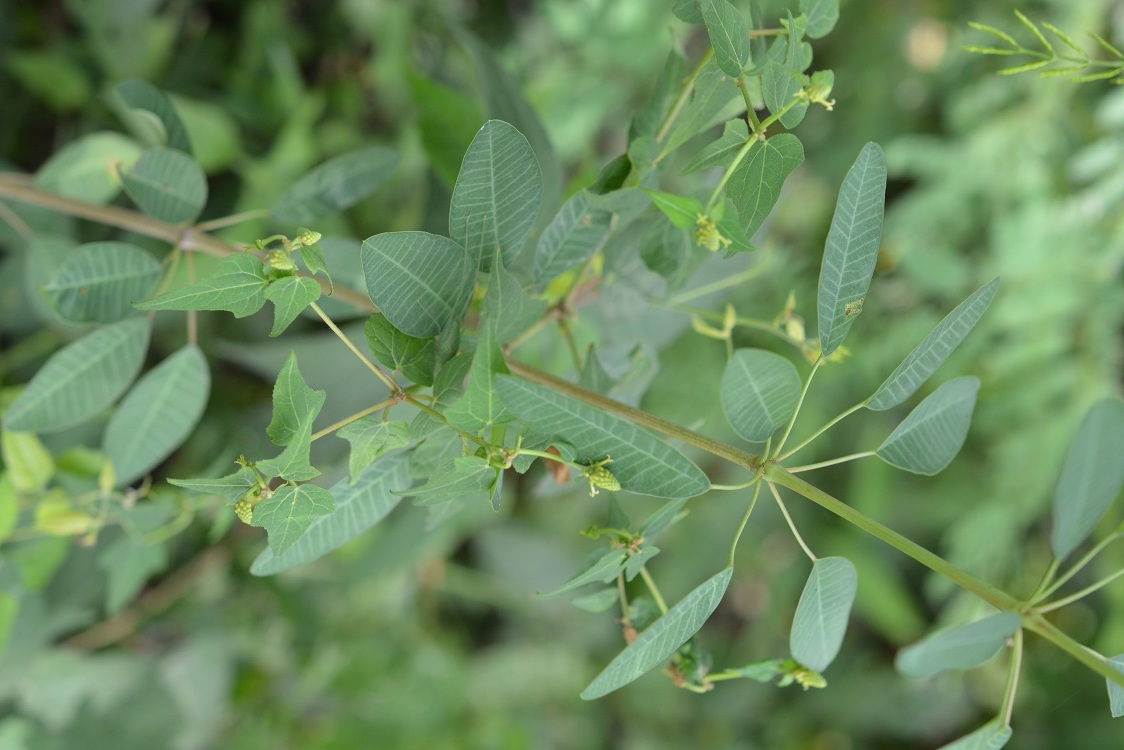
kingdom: Plantae
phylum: Tracheophyta
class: Magnoliopsida
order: Malpighiales
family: Euphorbiaceae
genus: Dalembertia
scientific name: Dalembertia triangularis
